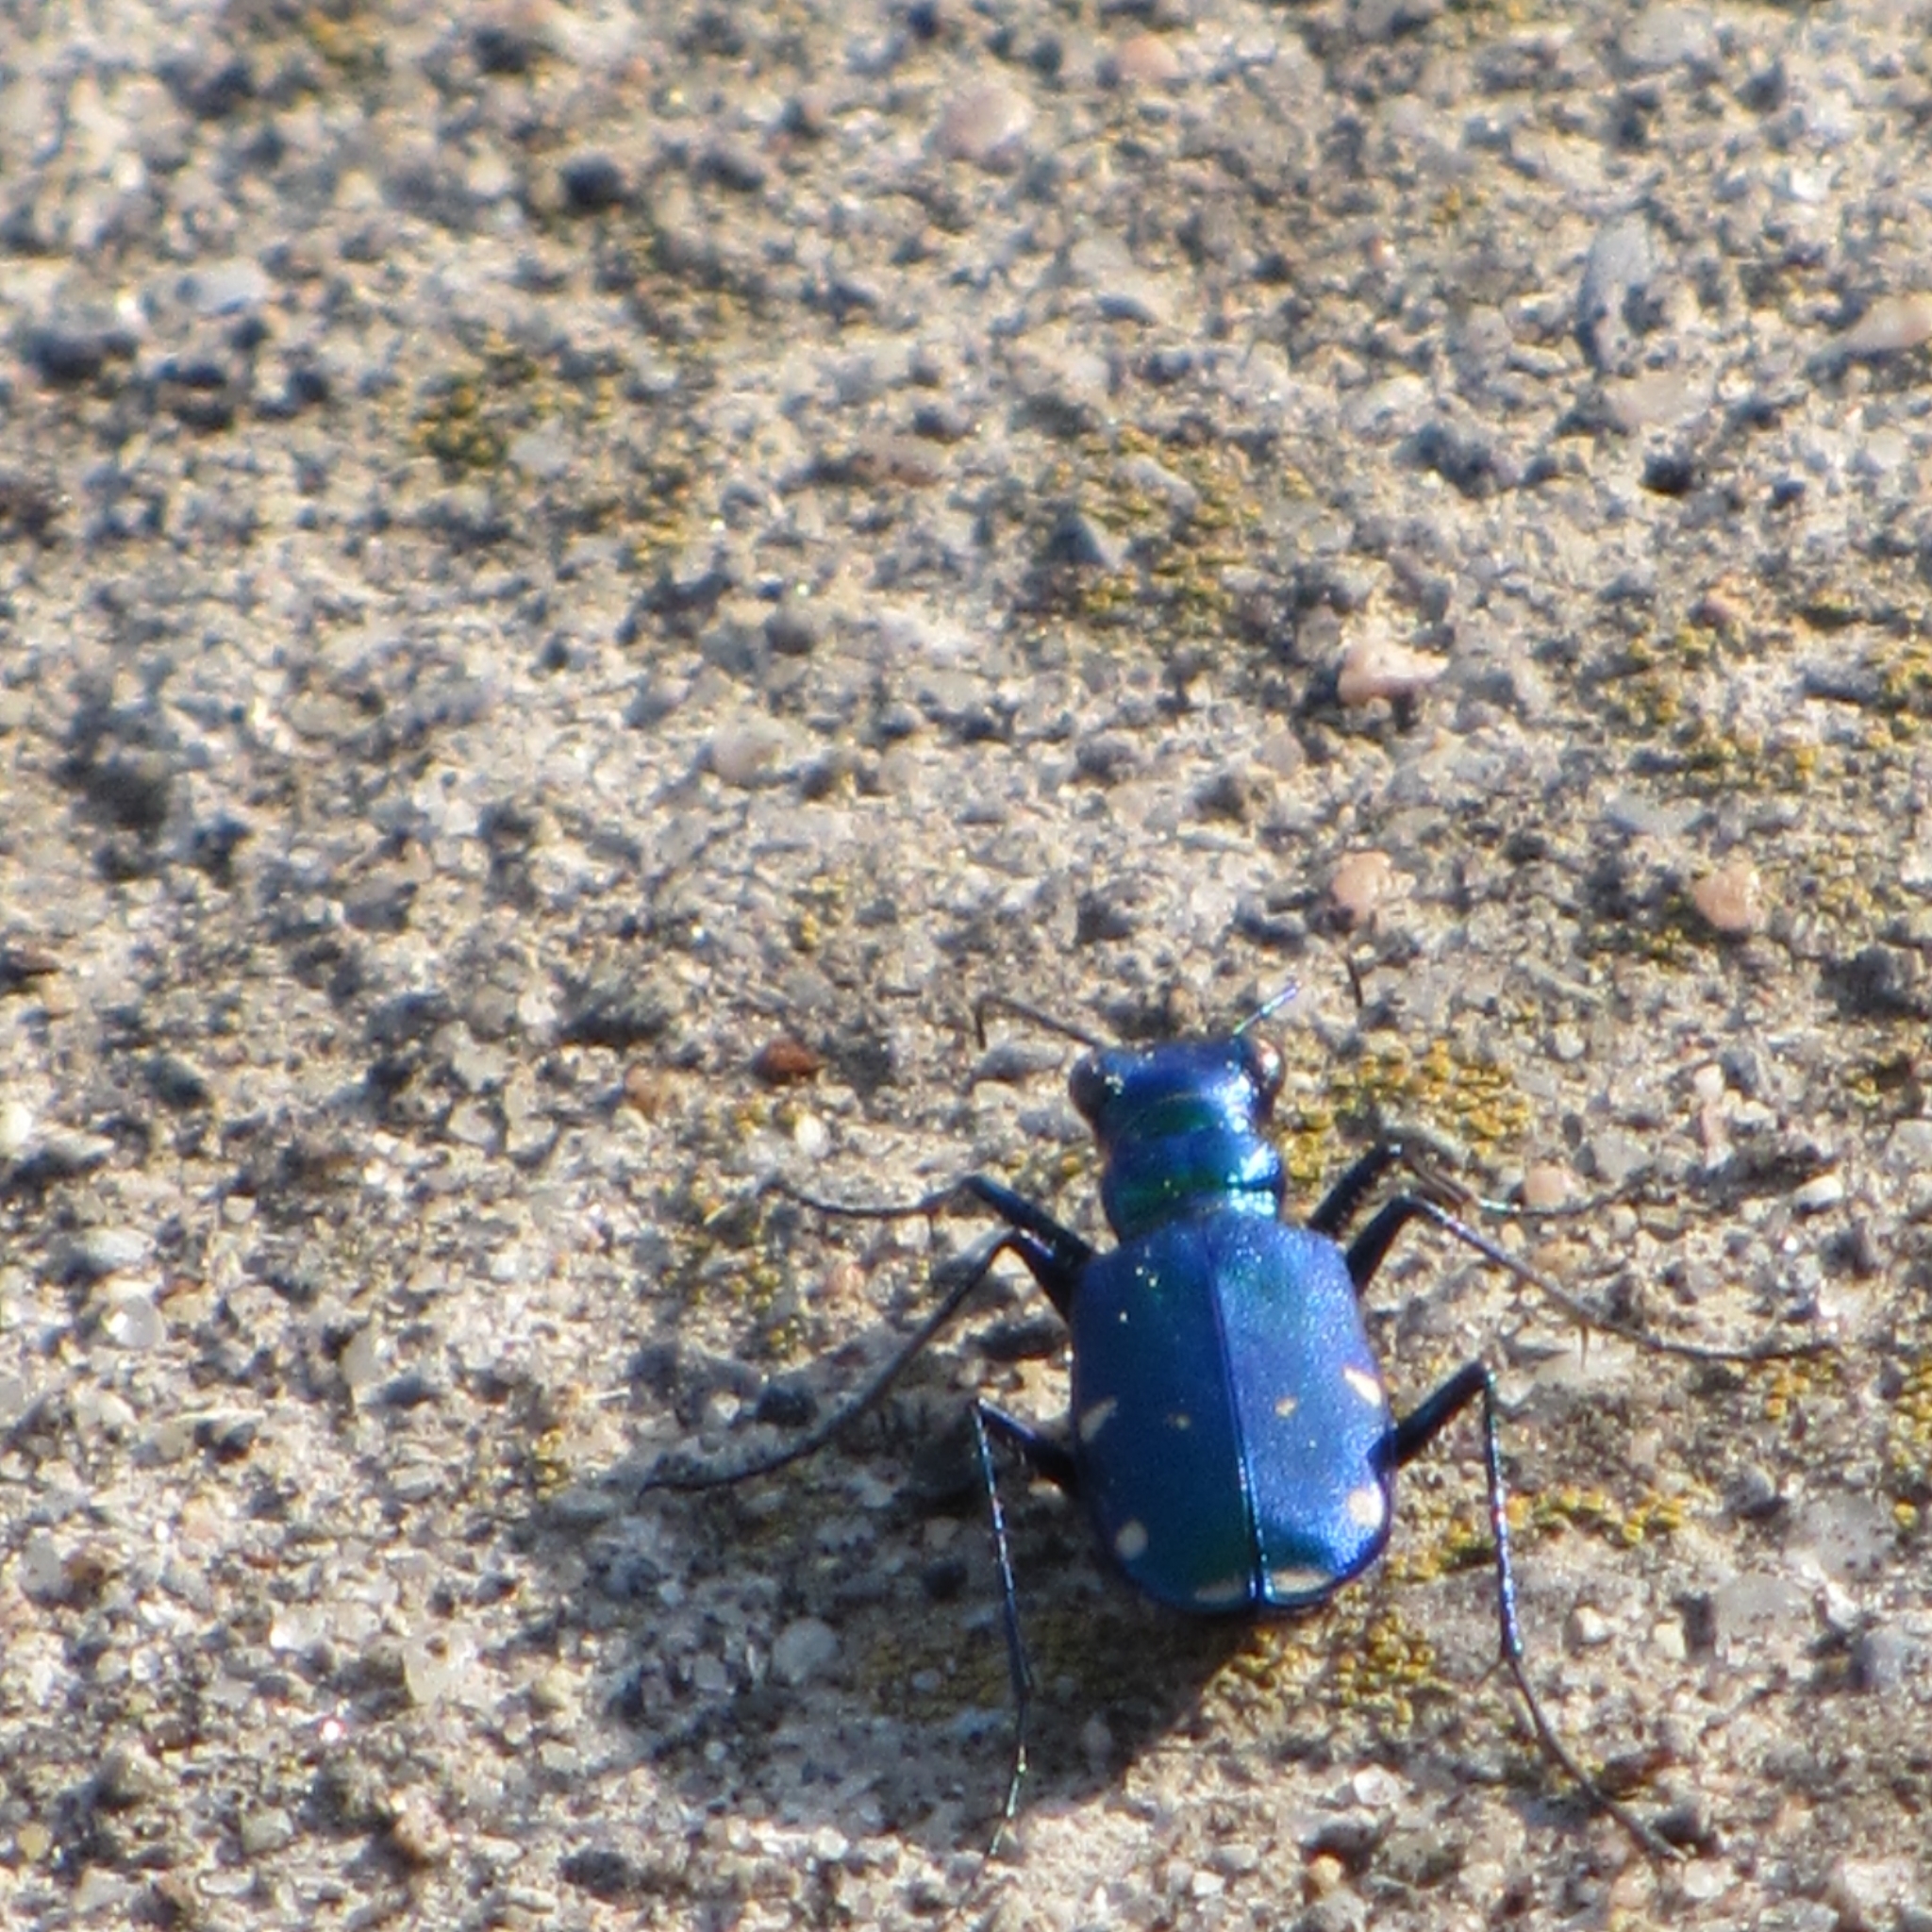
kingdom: Animalia
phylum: Arthropoda
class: Insecta
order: Coleoptera
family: Carabidae
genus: Cicindela
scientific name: Cicindela sexguttata
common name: Six-spotted tiger beetle
